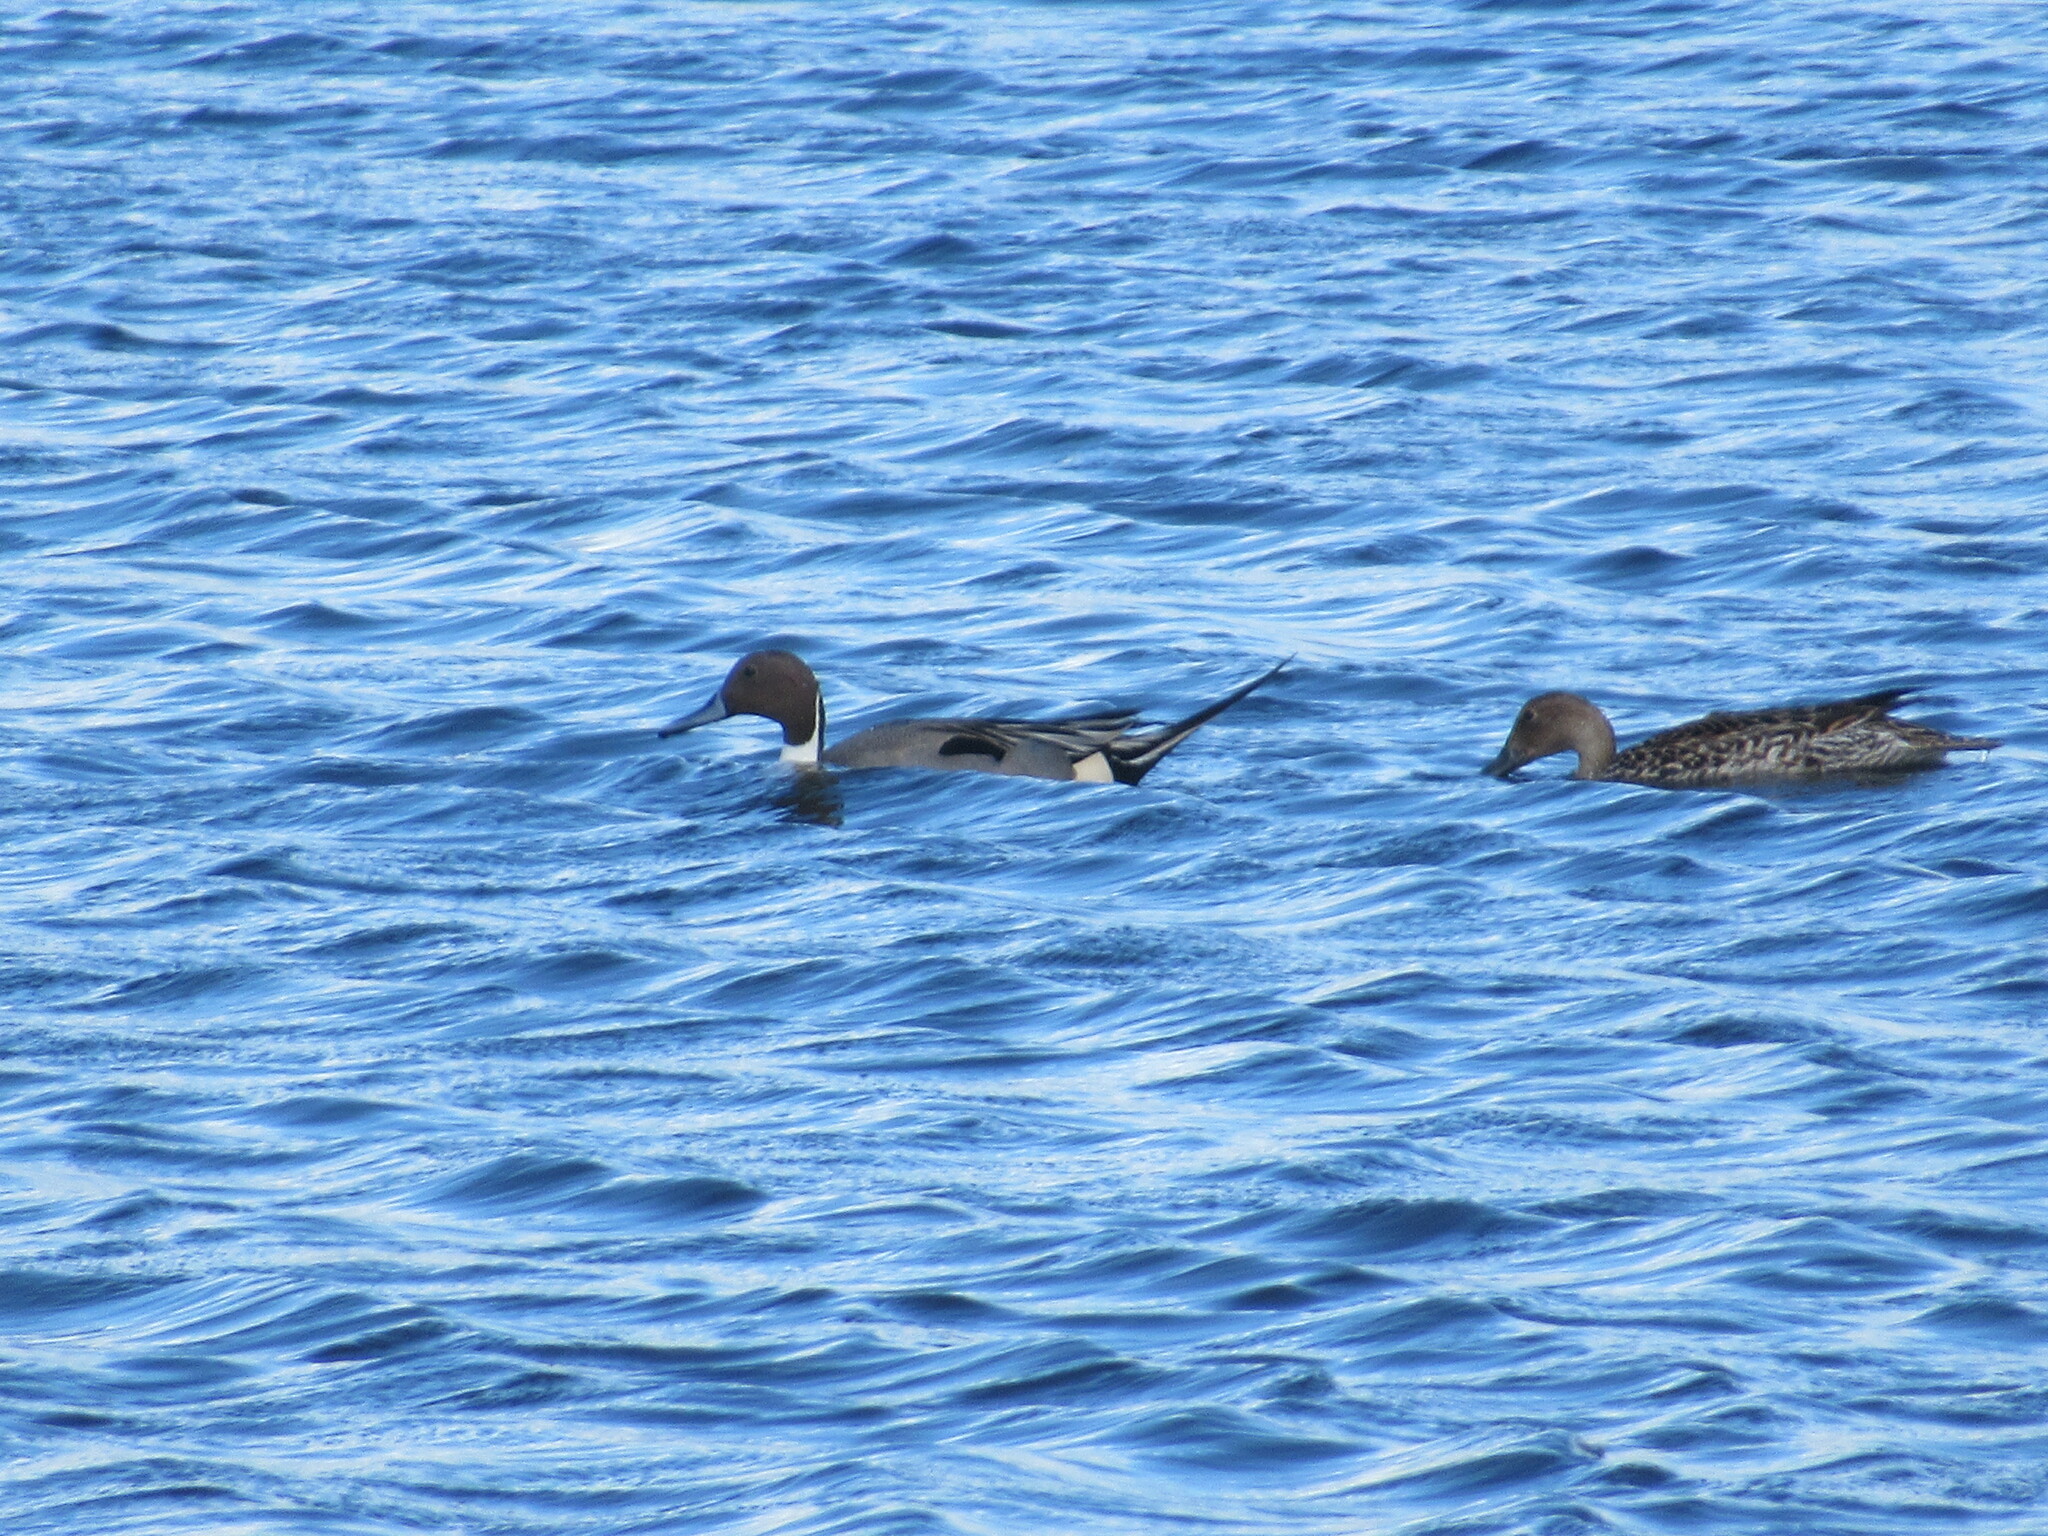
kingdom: Animalia
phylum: Chordata
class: Aves
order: Anseriformes
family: Anatidae
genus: Anas
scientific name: Anas acuta
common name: Northern pintail
